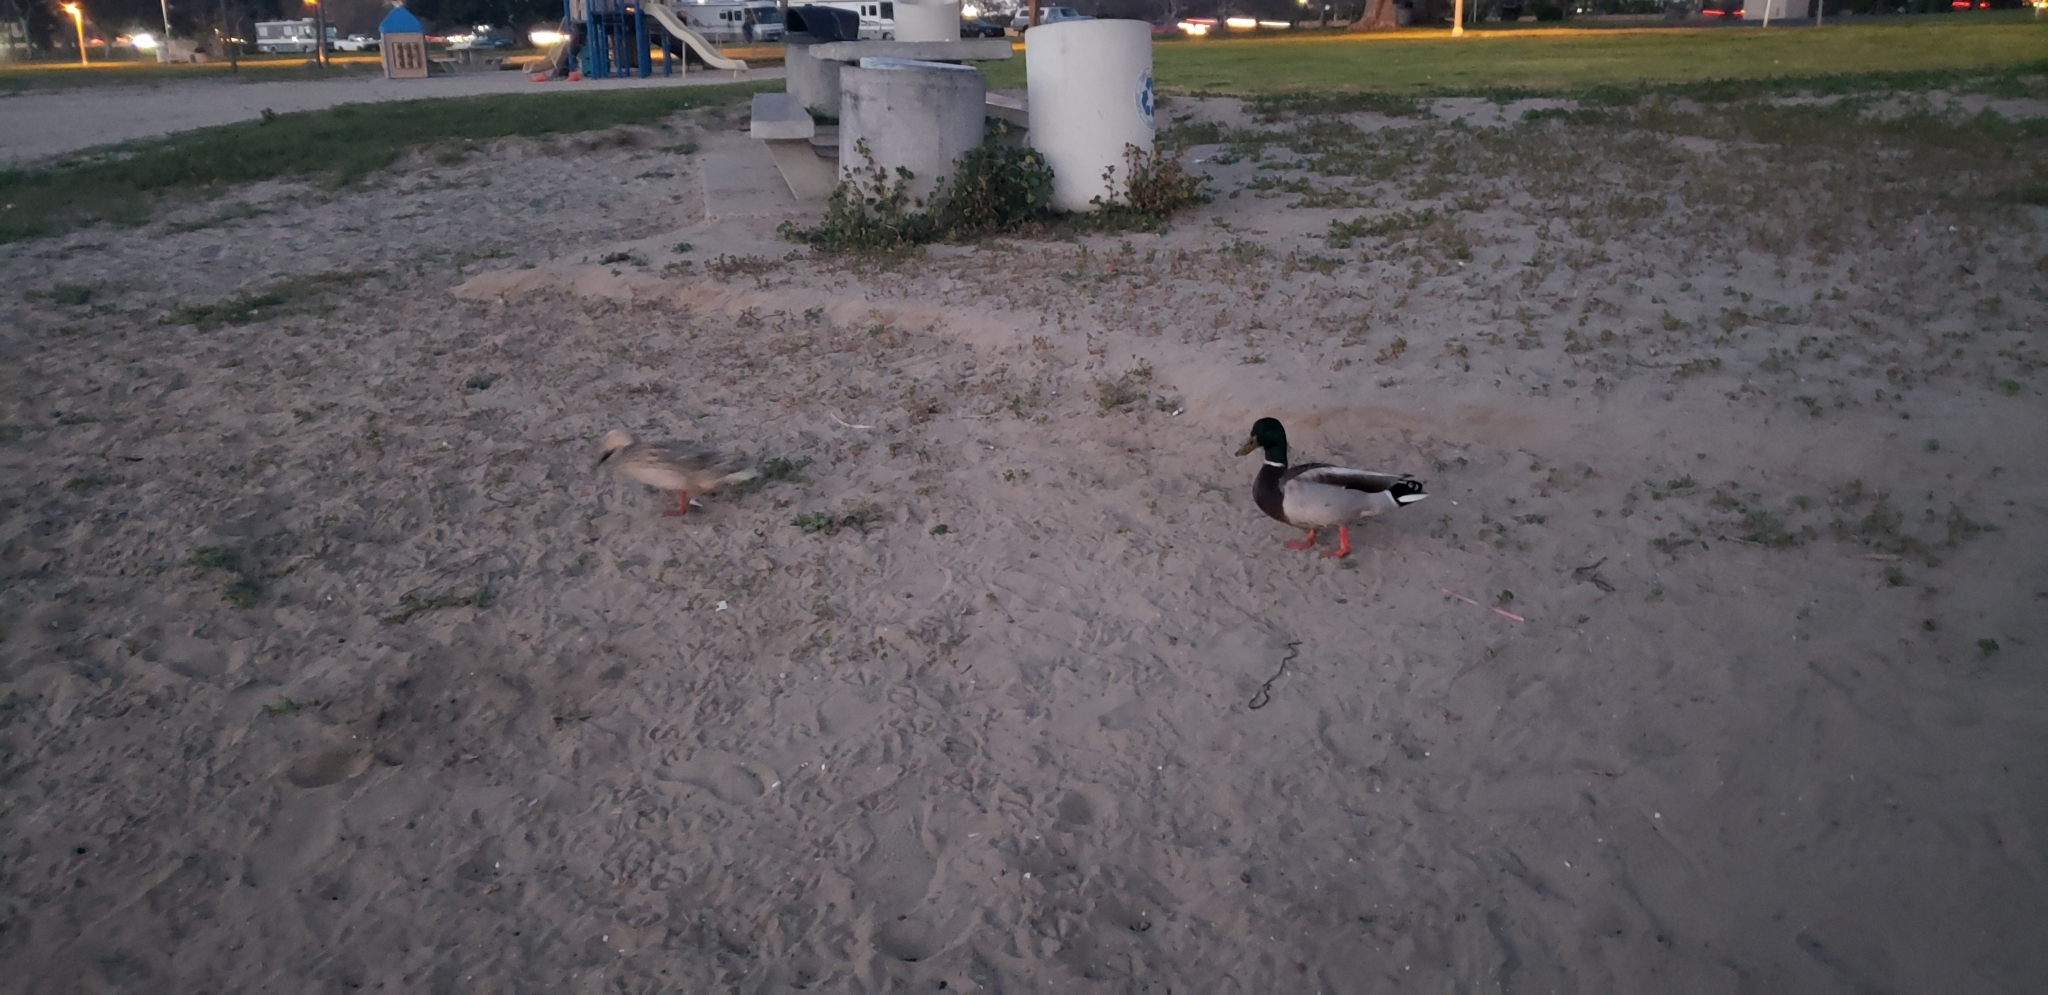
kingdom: Animalia
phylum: Chordata
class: Aves
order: Anseriformes
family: Anatidae
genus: Anas
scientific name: Anas platyrhynchos
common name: Mallard
